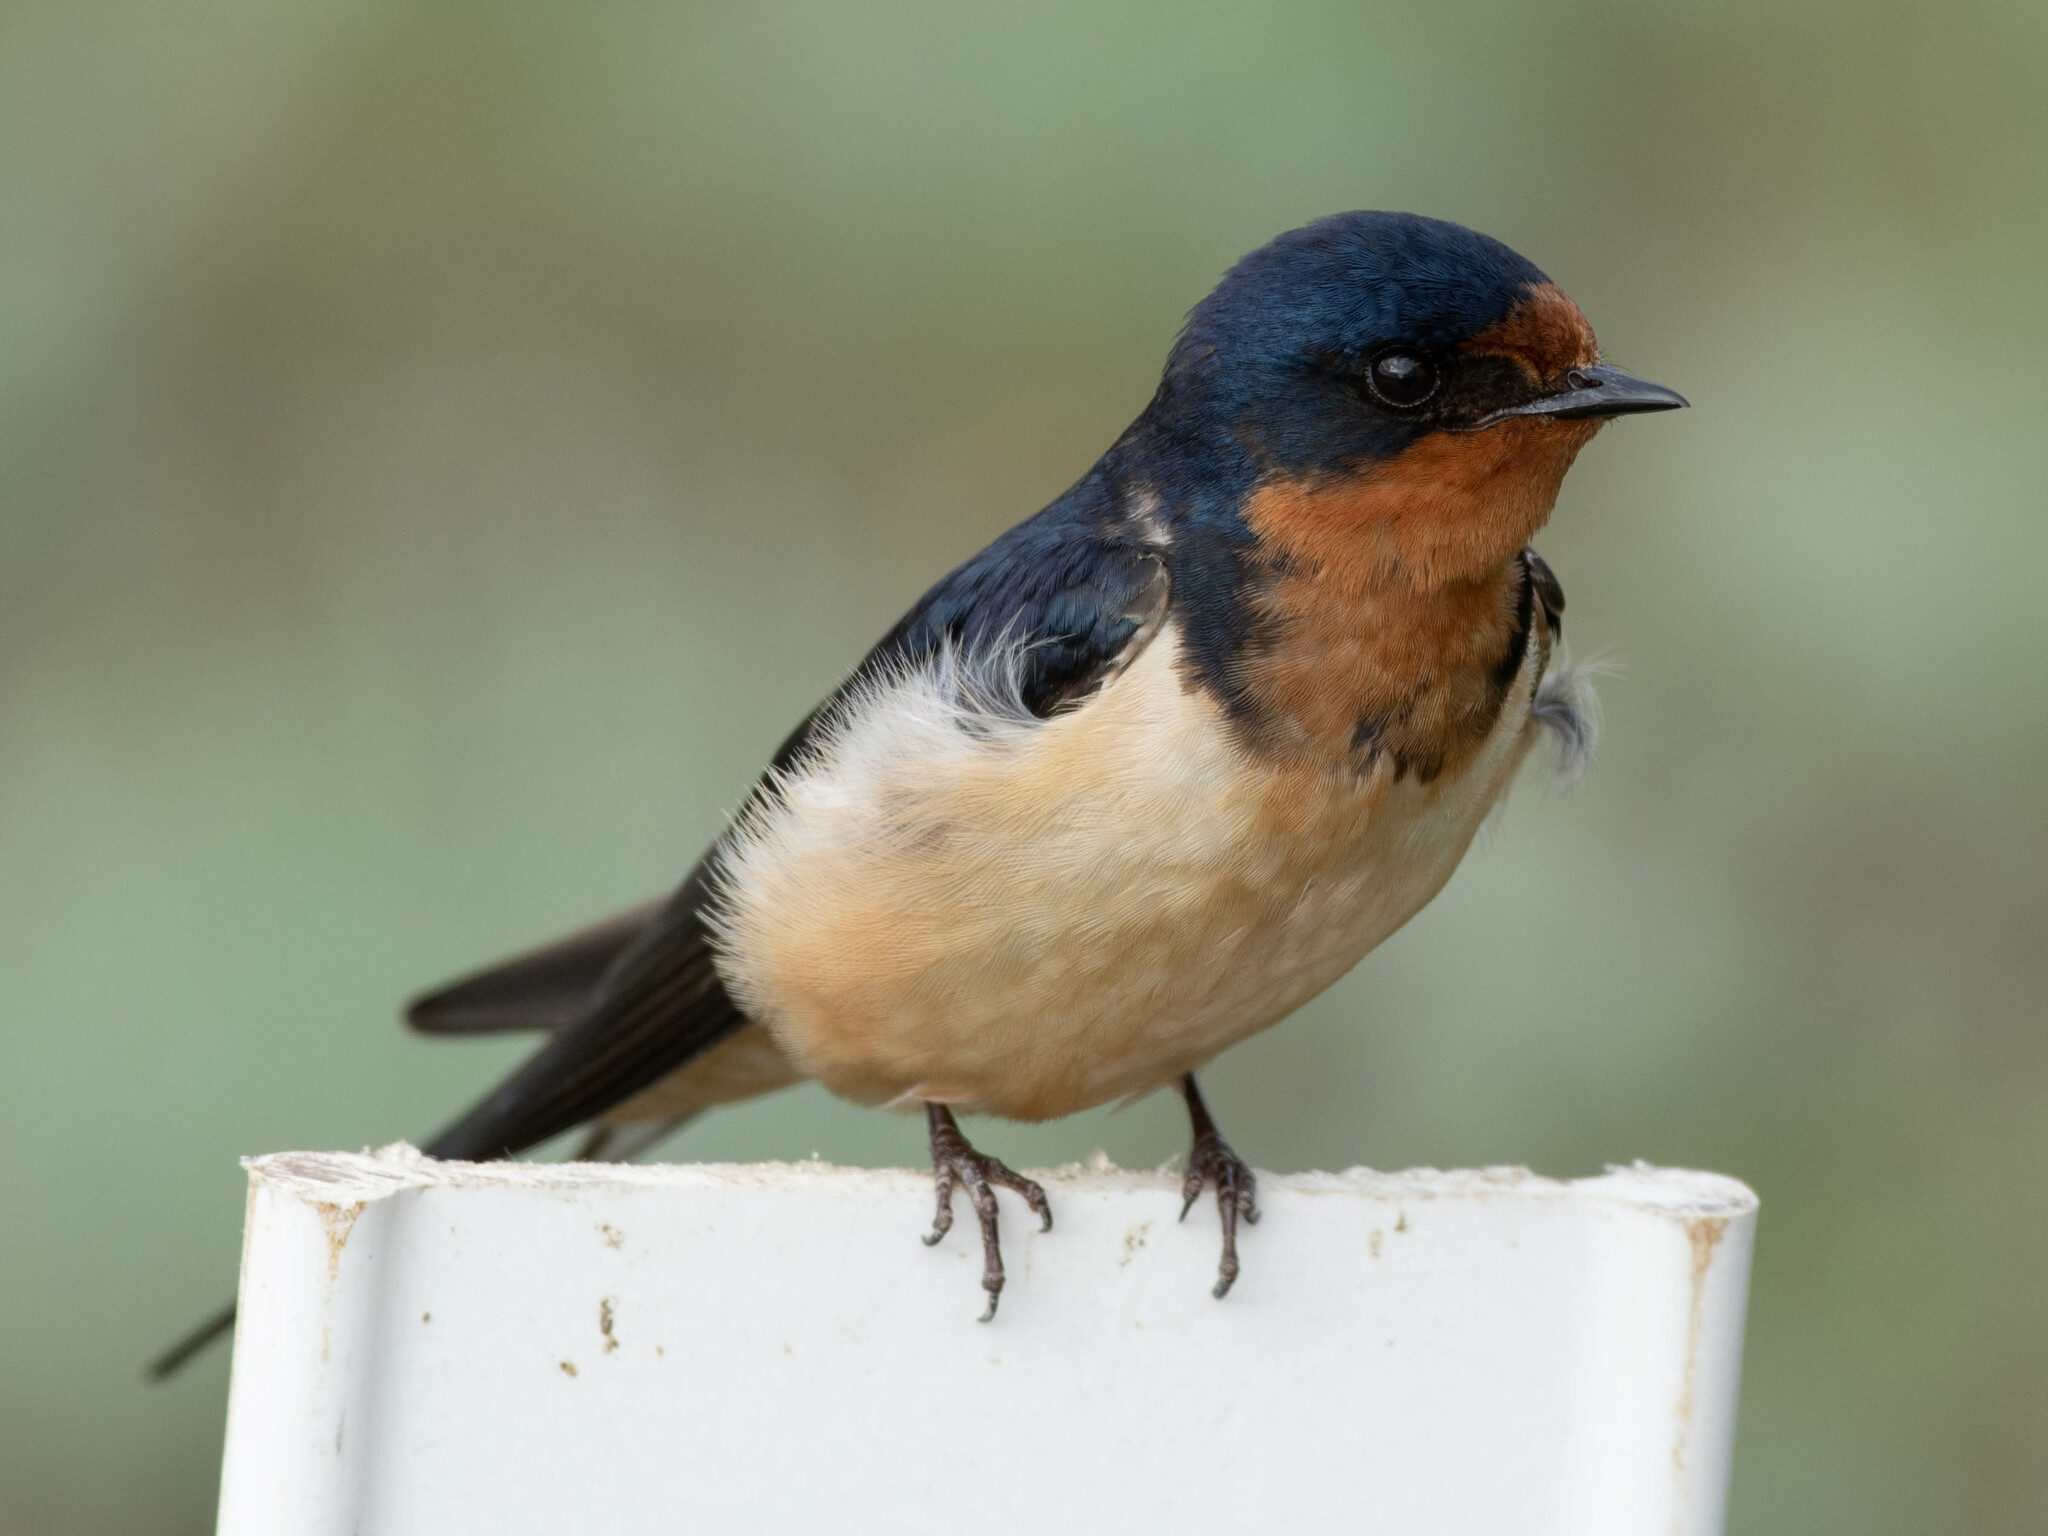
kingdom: Animalia
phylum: Chordata
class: Aves
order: Passeriformes
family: Hirundinidae
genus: Hirundo
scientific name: Hirundo rustica
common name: Barn swallow
